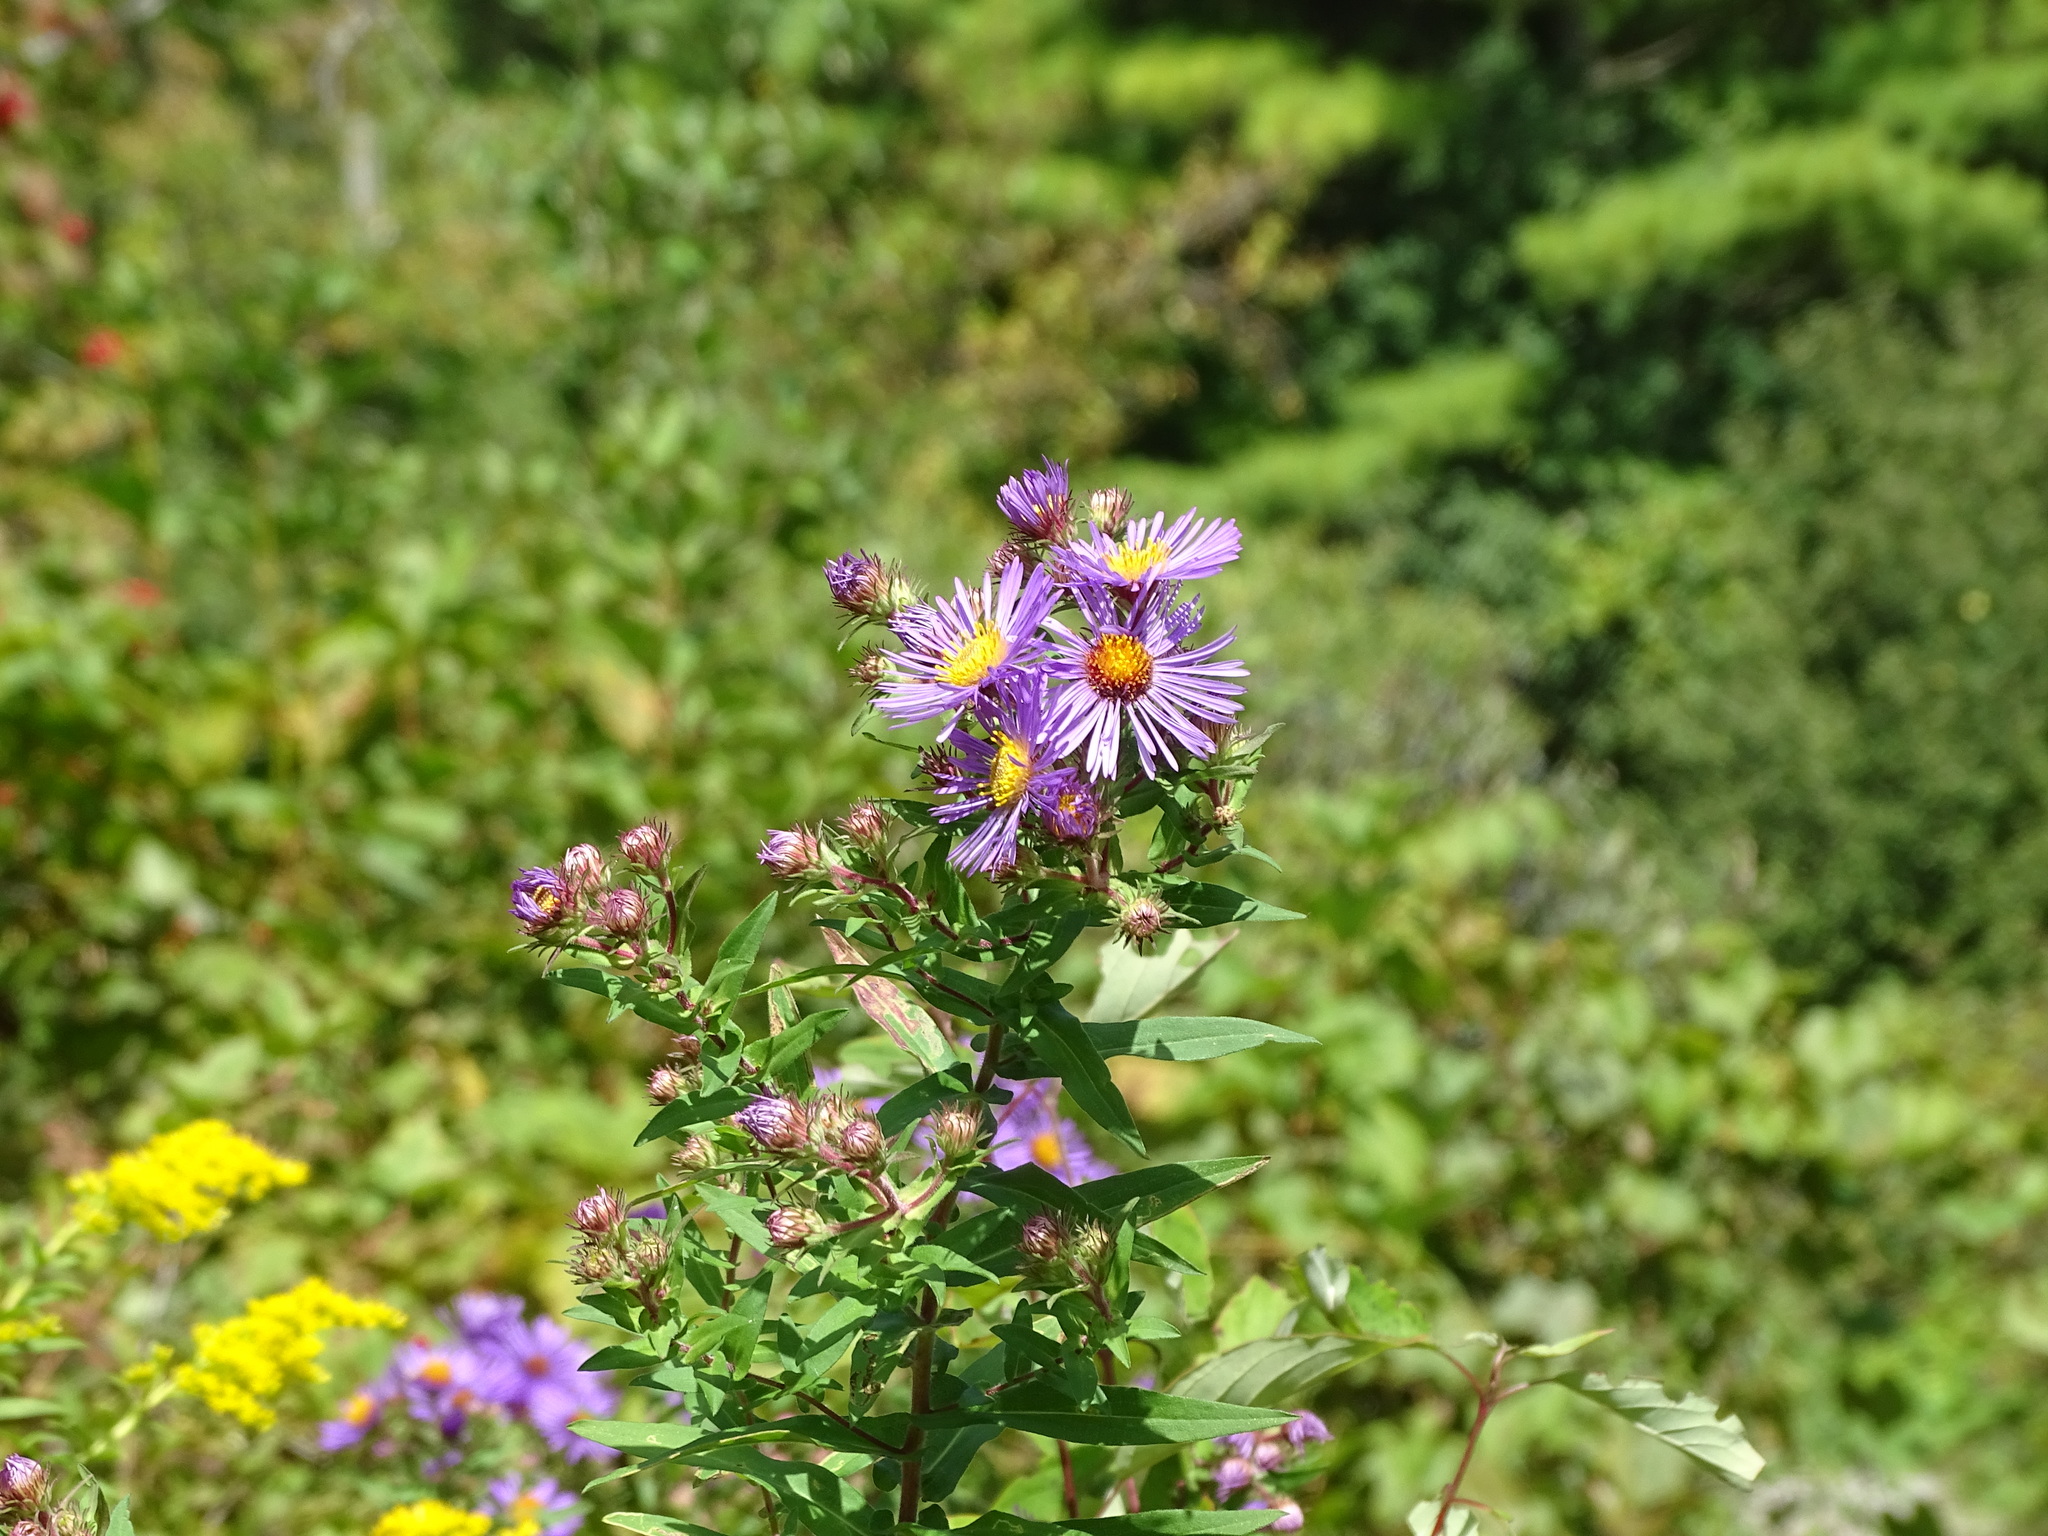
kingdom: Plantae
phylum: Tracheophyta
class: Magnoliopsida
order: Asterales
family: Asteraceae
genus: Symphyotrichum
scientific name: Symphyotrichum novae-angliae
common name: Michaelmas daisy
